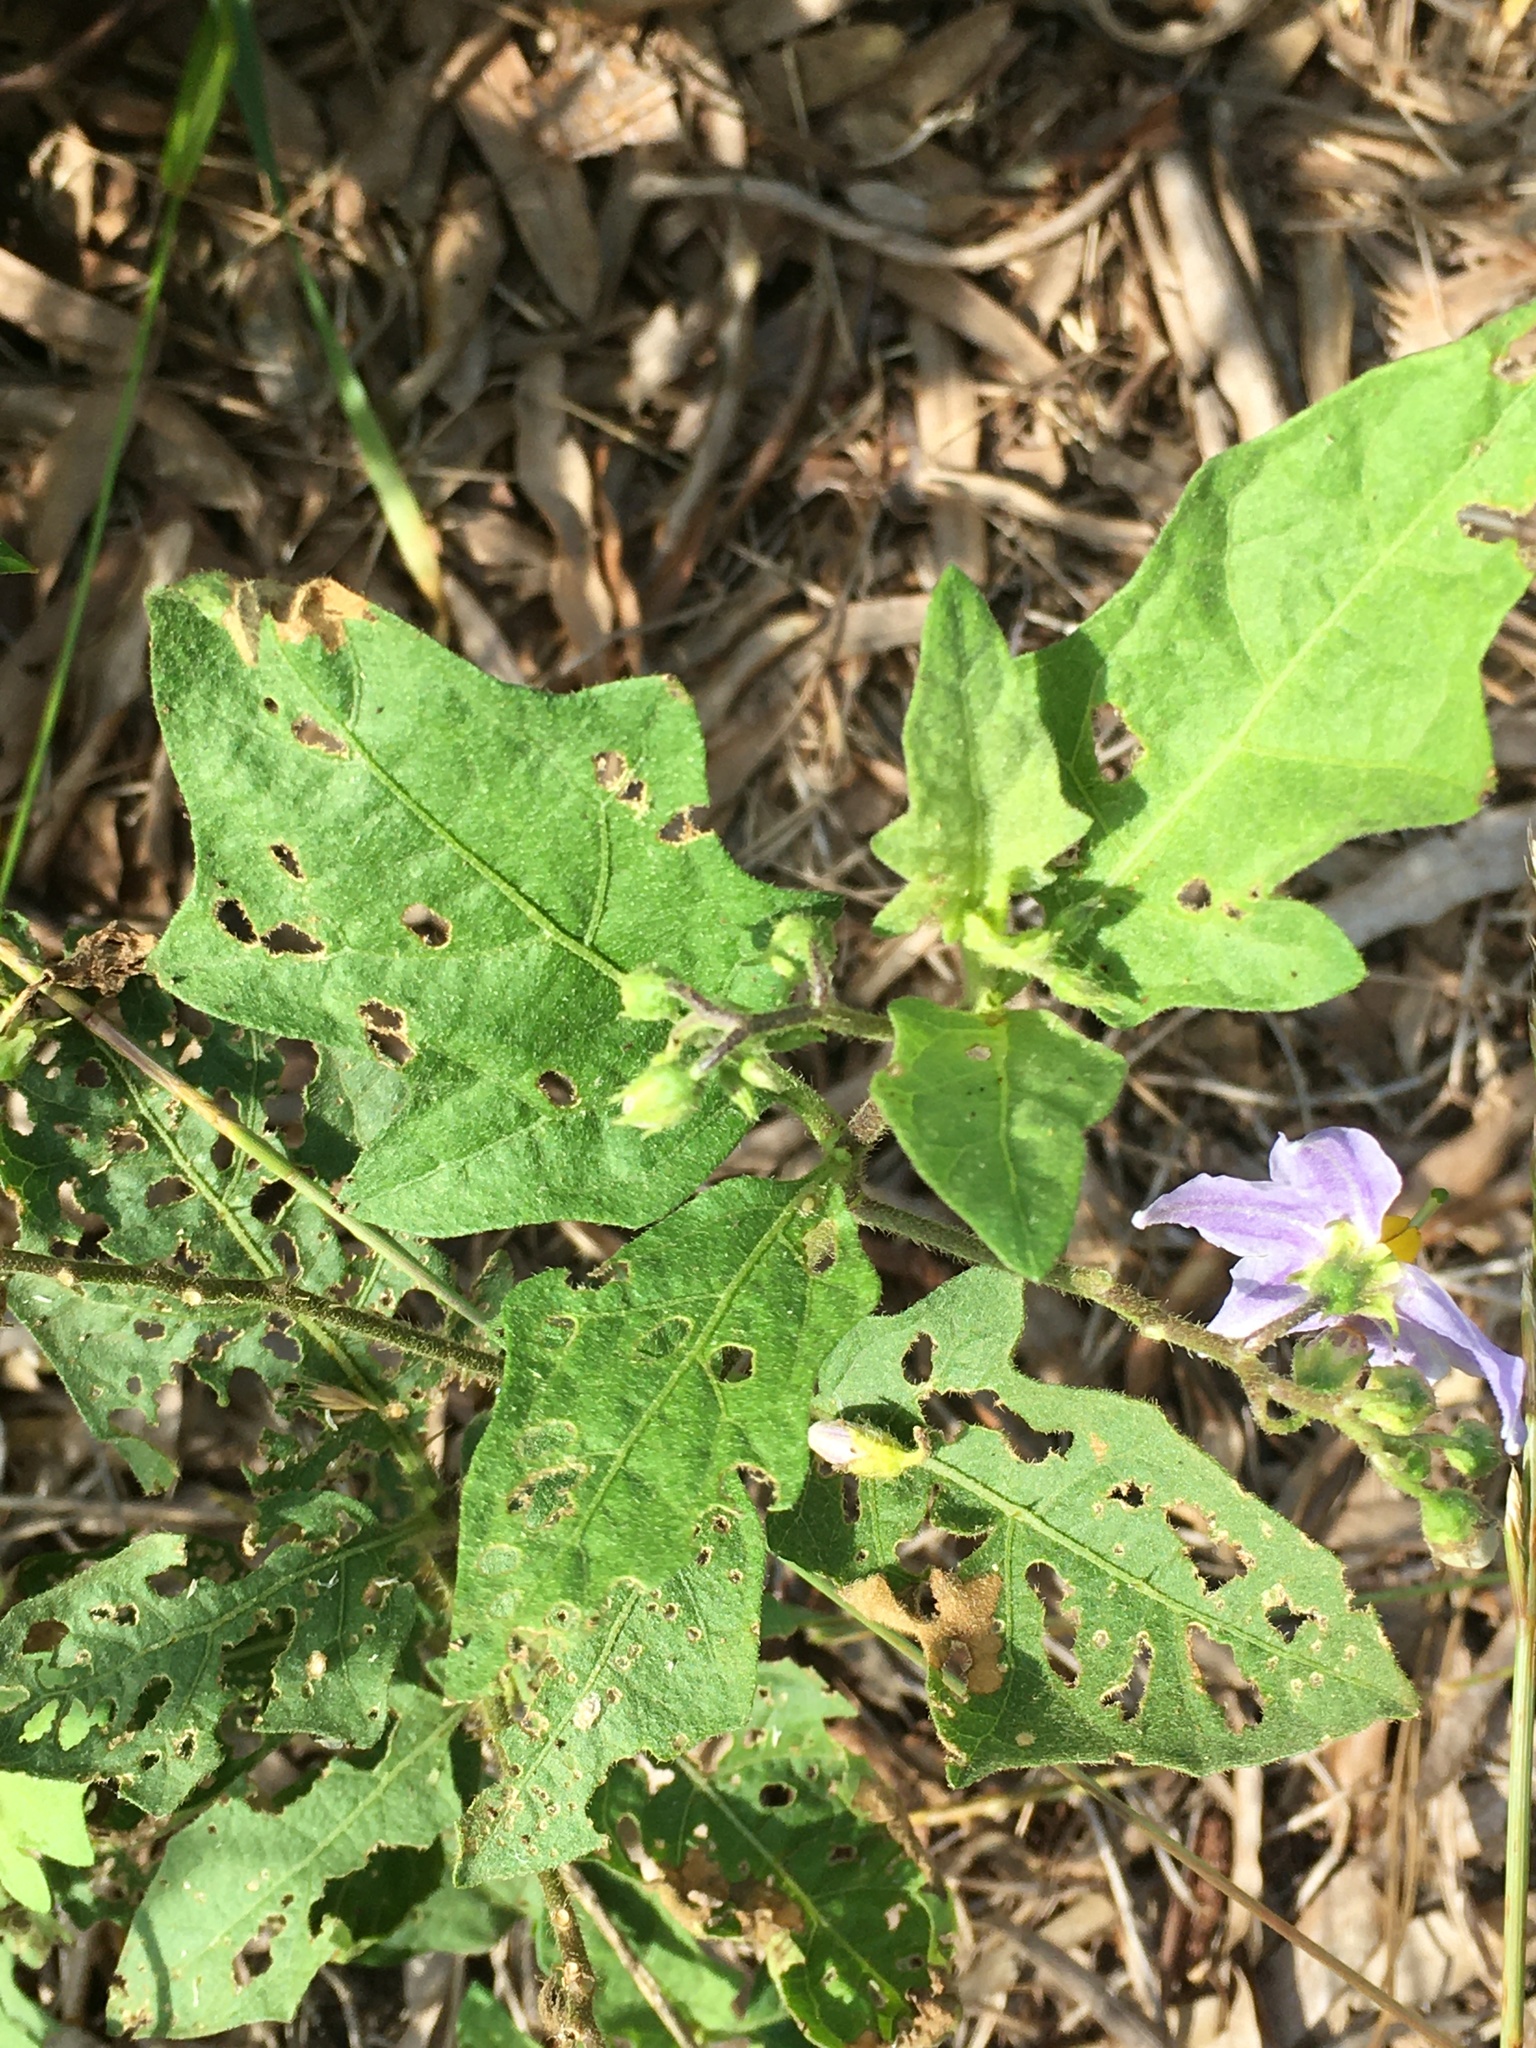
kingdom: Plantae
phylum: Tracheophyta
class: Magnoliopsida
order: Solanales
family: Solanaceae
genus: Solanum
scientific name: Solanum carolinense
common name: Horse-nettle
